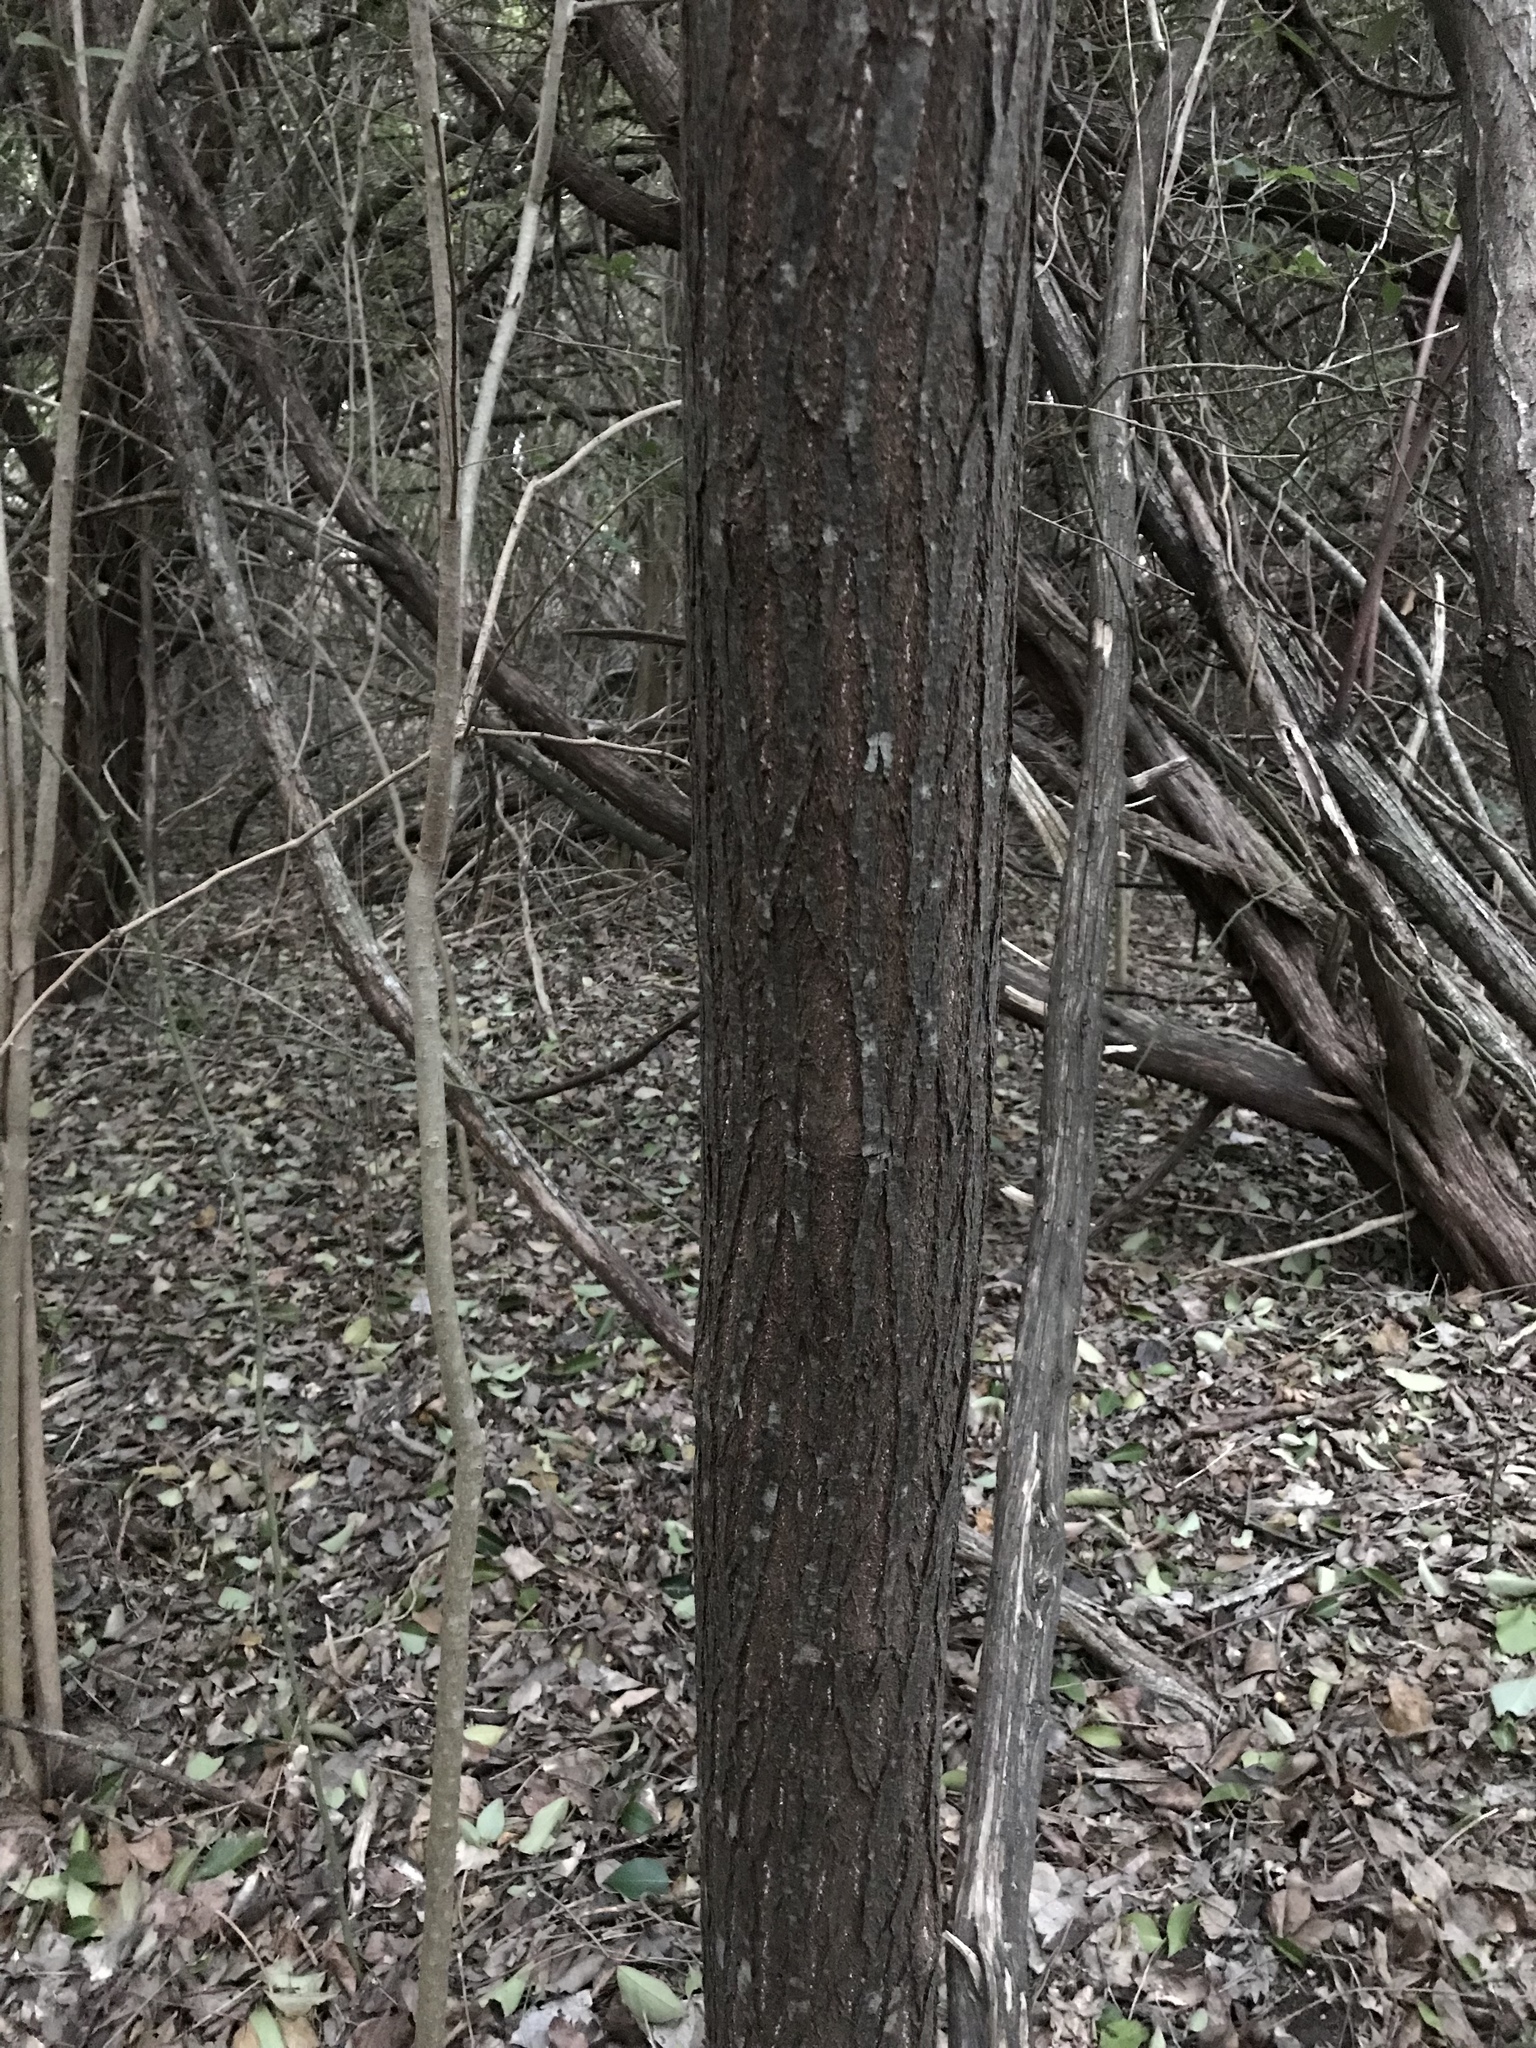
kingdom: Plantae
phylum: Tracheophyta
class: Magnoliopsida
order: Sapindales
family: Meliaceae
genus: Melia
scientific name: Melia azedarach
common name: Chinaberrytree
